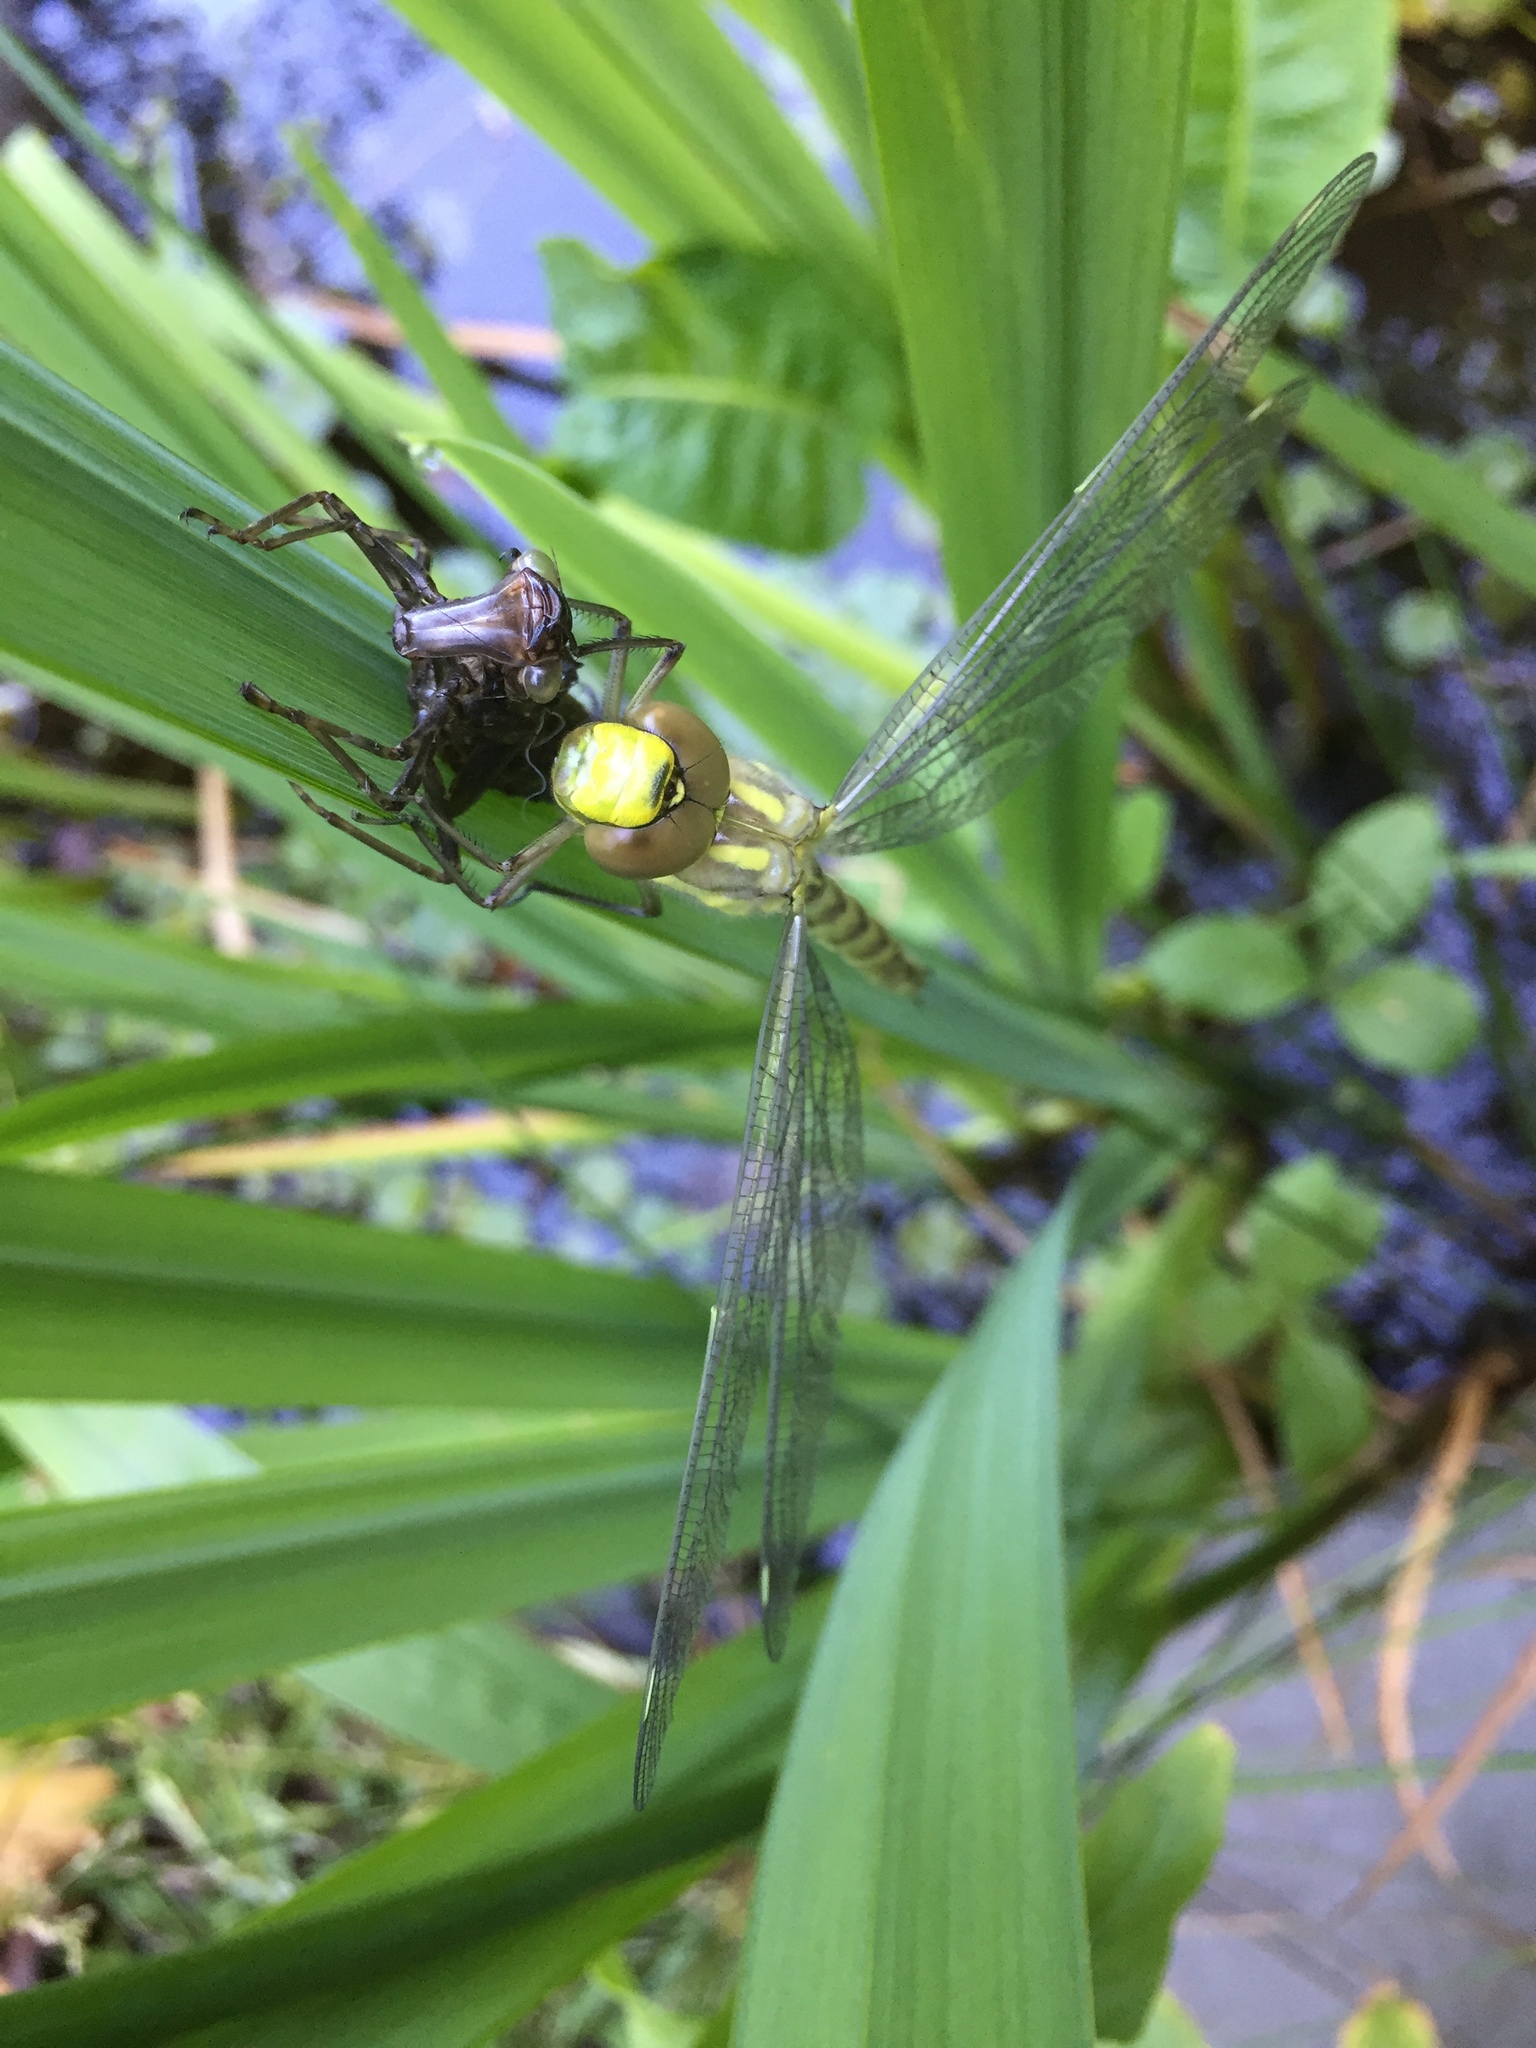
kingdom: Animalia
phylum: Arthropoda
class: Insecta
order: Odonata
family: Aeshnidae
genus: Aeshna
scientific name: Aeshna cyanea
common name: Southern hawker
